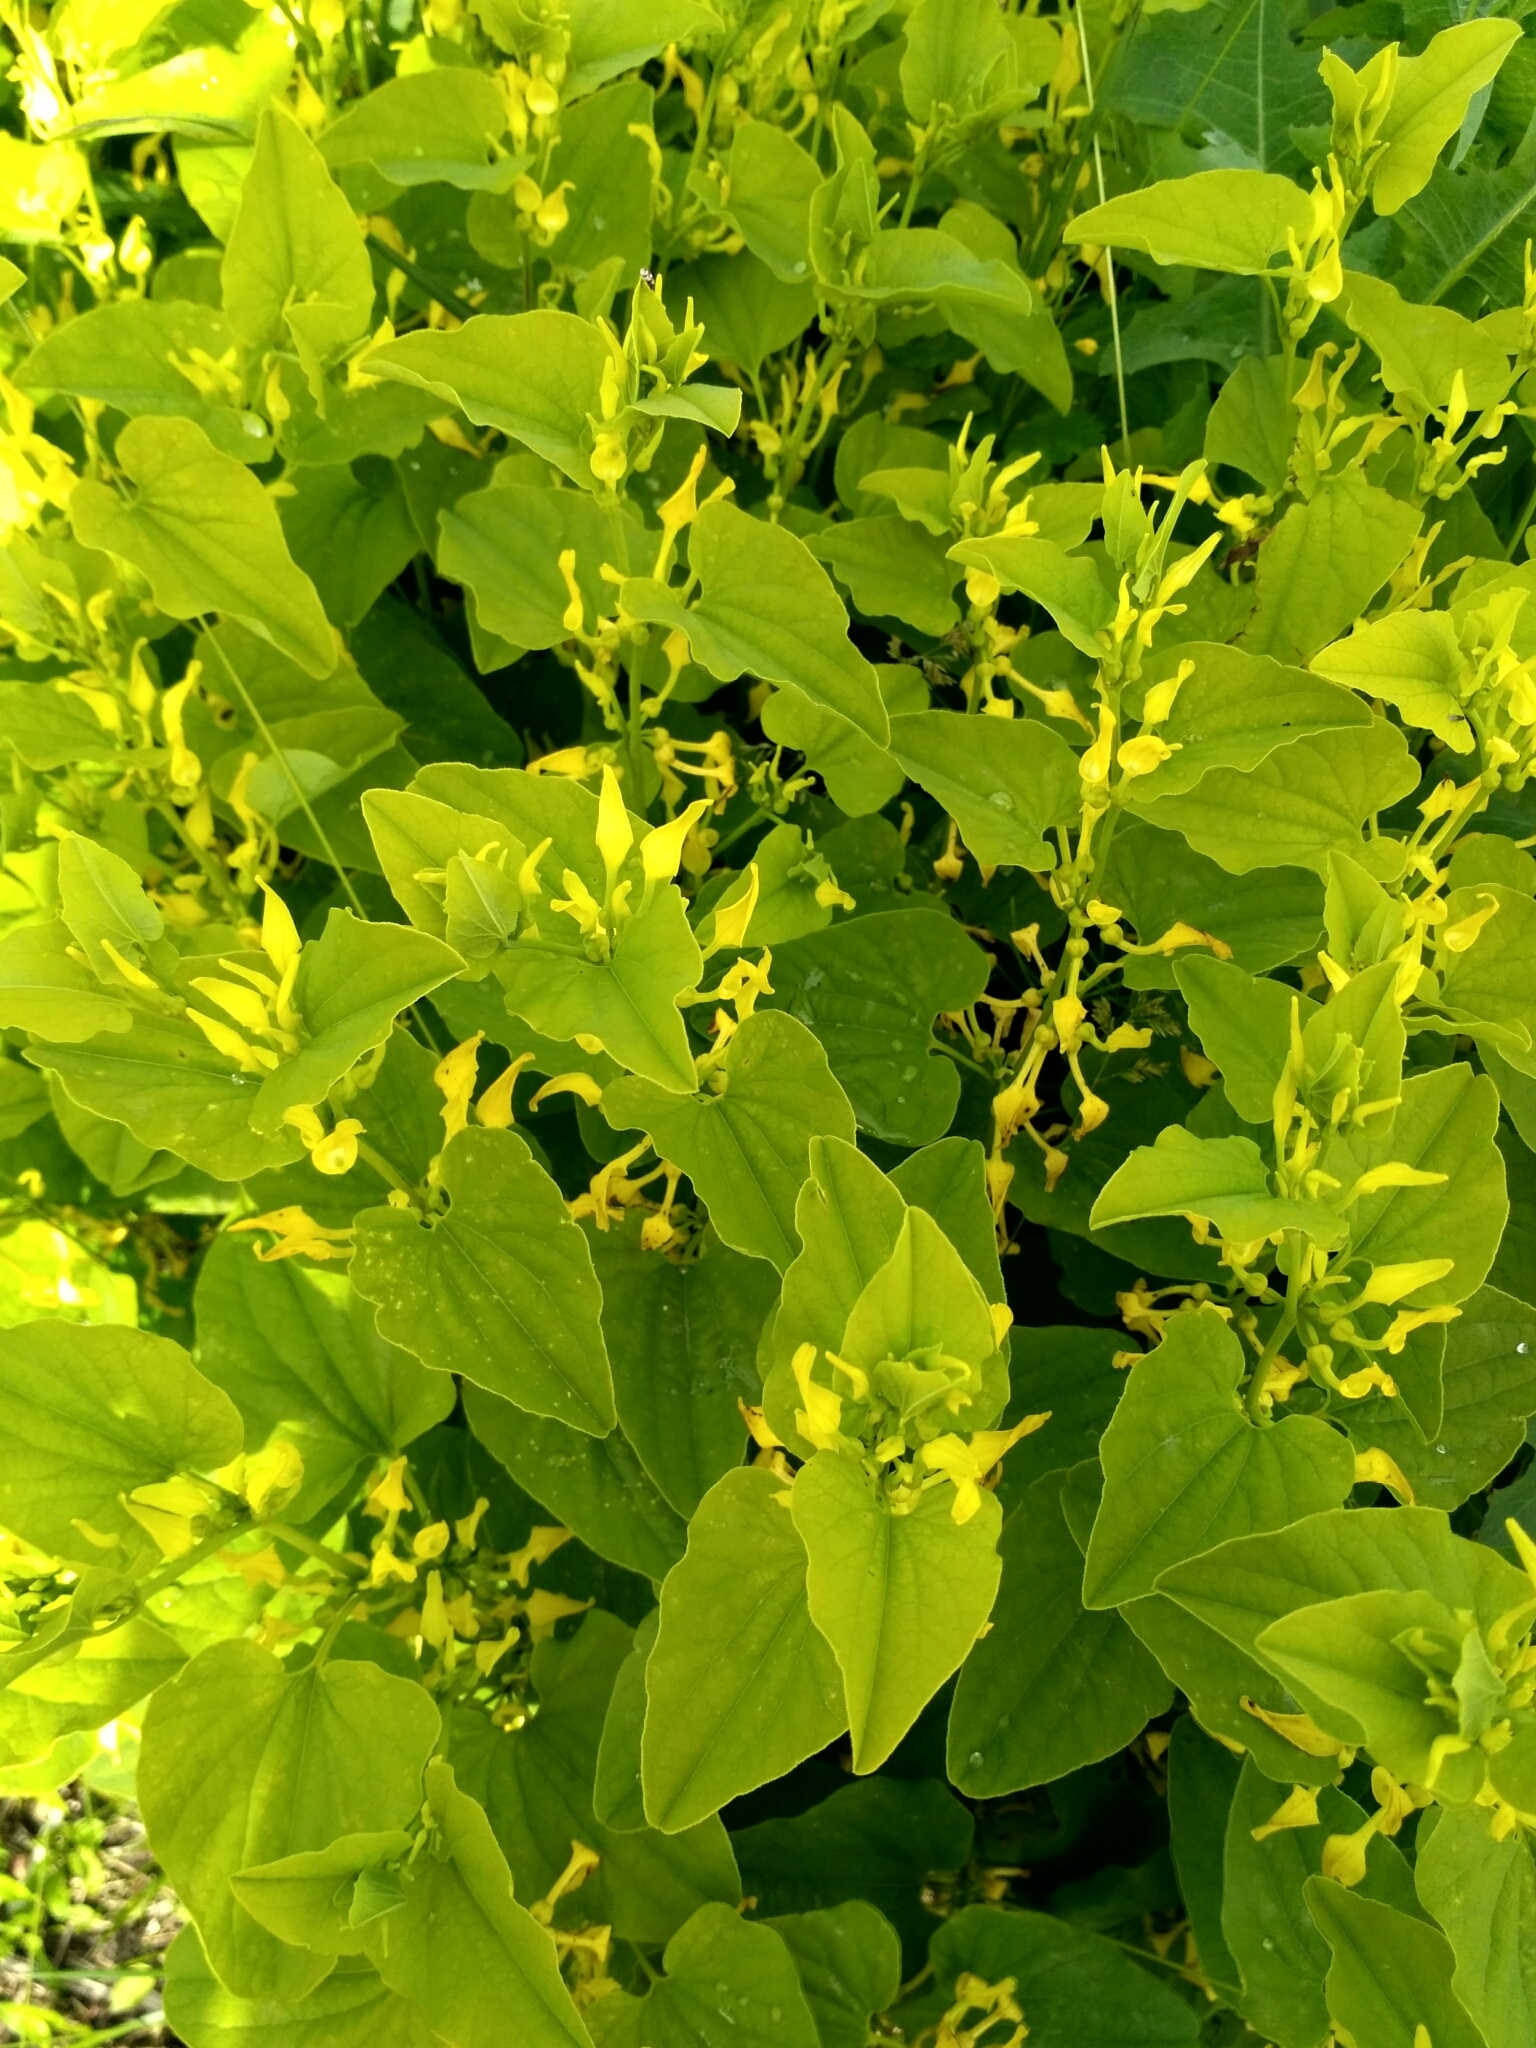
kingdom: Plantae
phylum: Tracheophyta
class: Magnoliopsida
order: Piperales
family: Aristolochiaceae
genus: Aristolochia
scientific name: Aristolochia clematitis
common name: Birthwort
